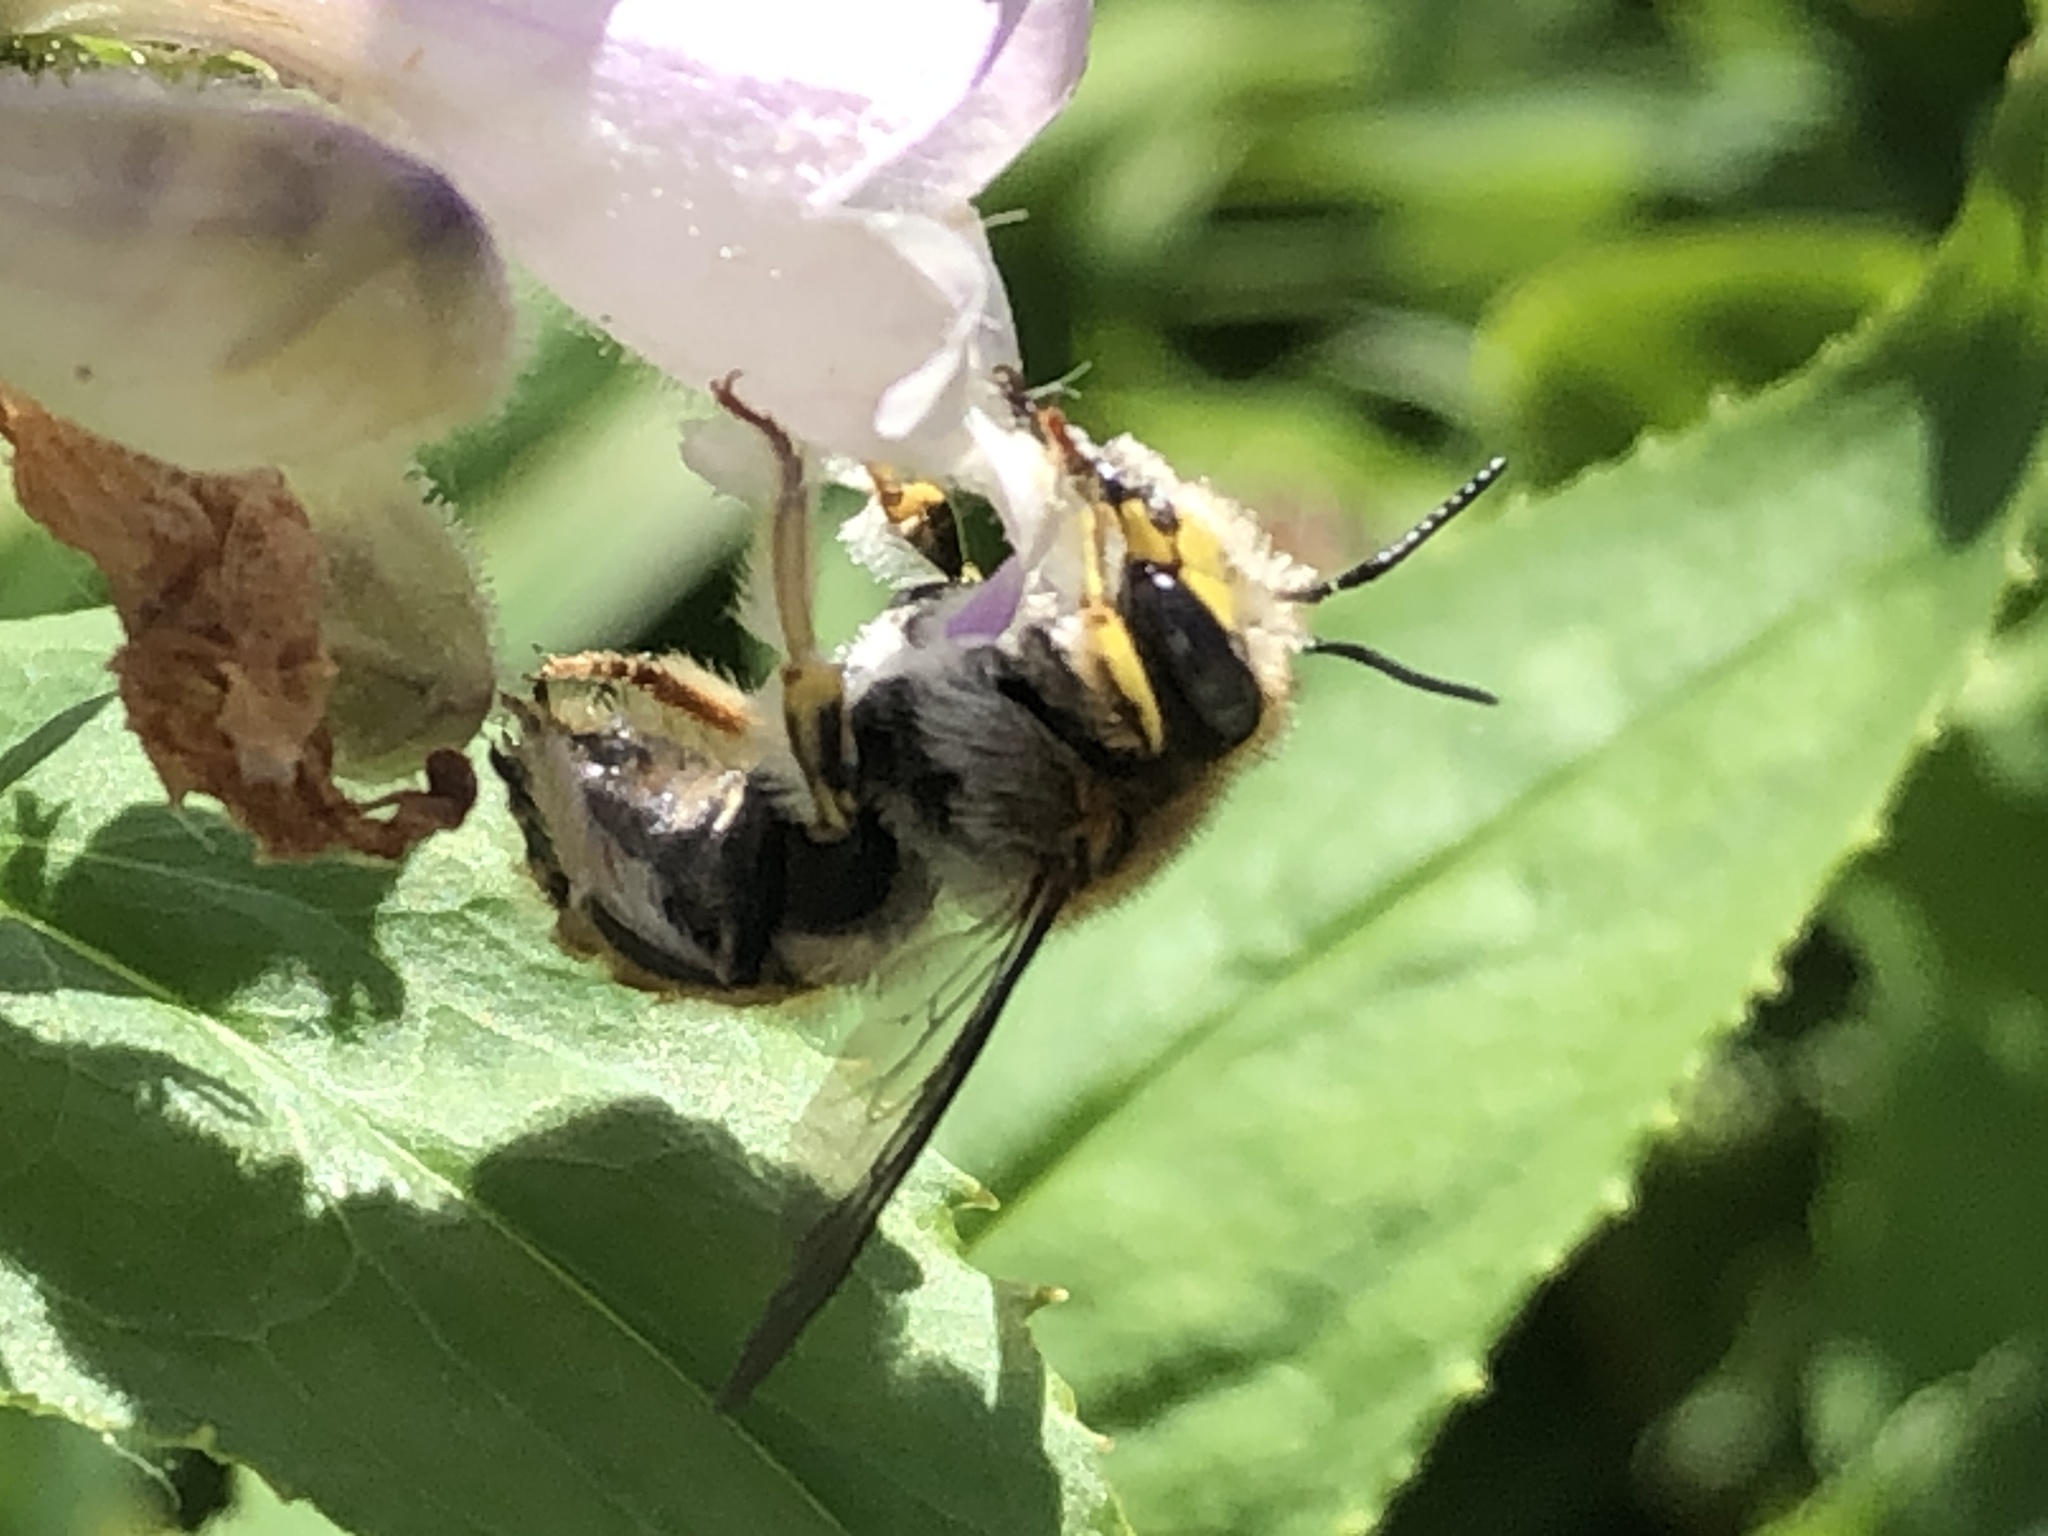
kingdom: Animalia
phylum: Arthropoda
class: Insecta
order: Hymenoptera
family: Megachilidae
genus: Anthidium
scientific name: Anthidium manicatum
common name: Wool carder bee
